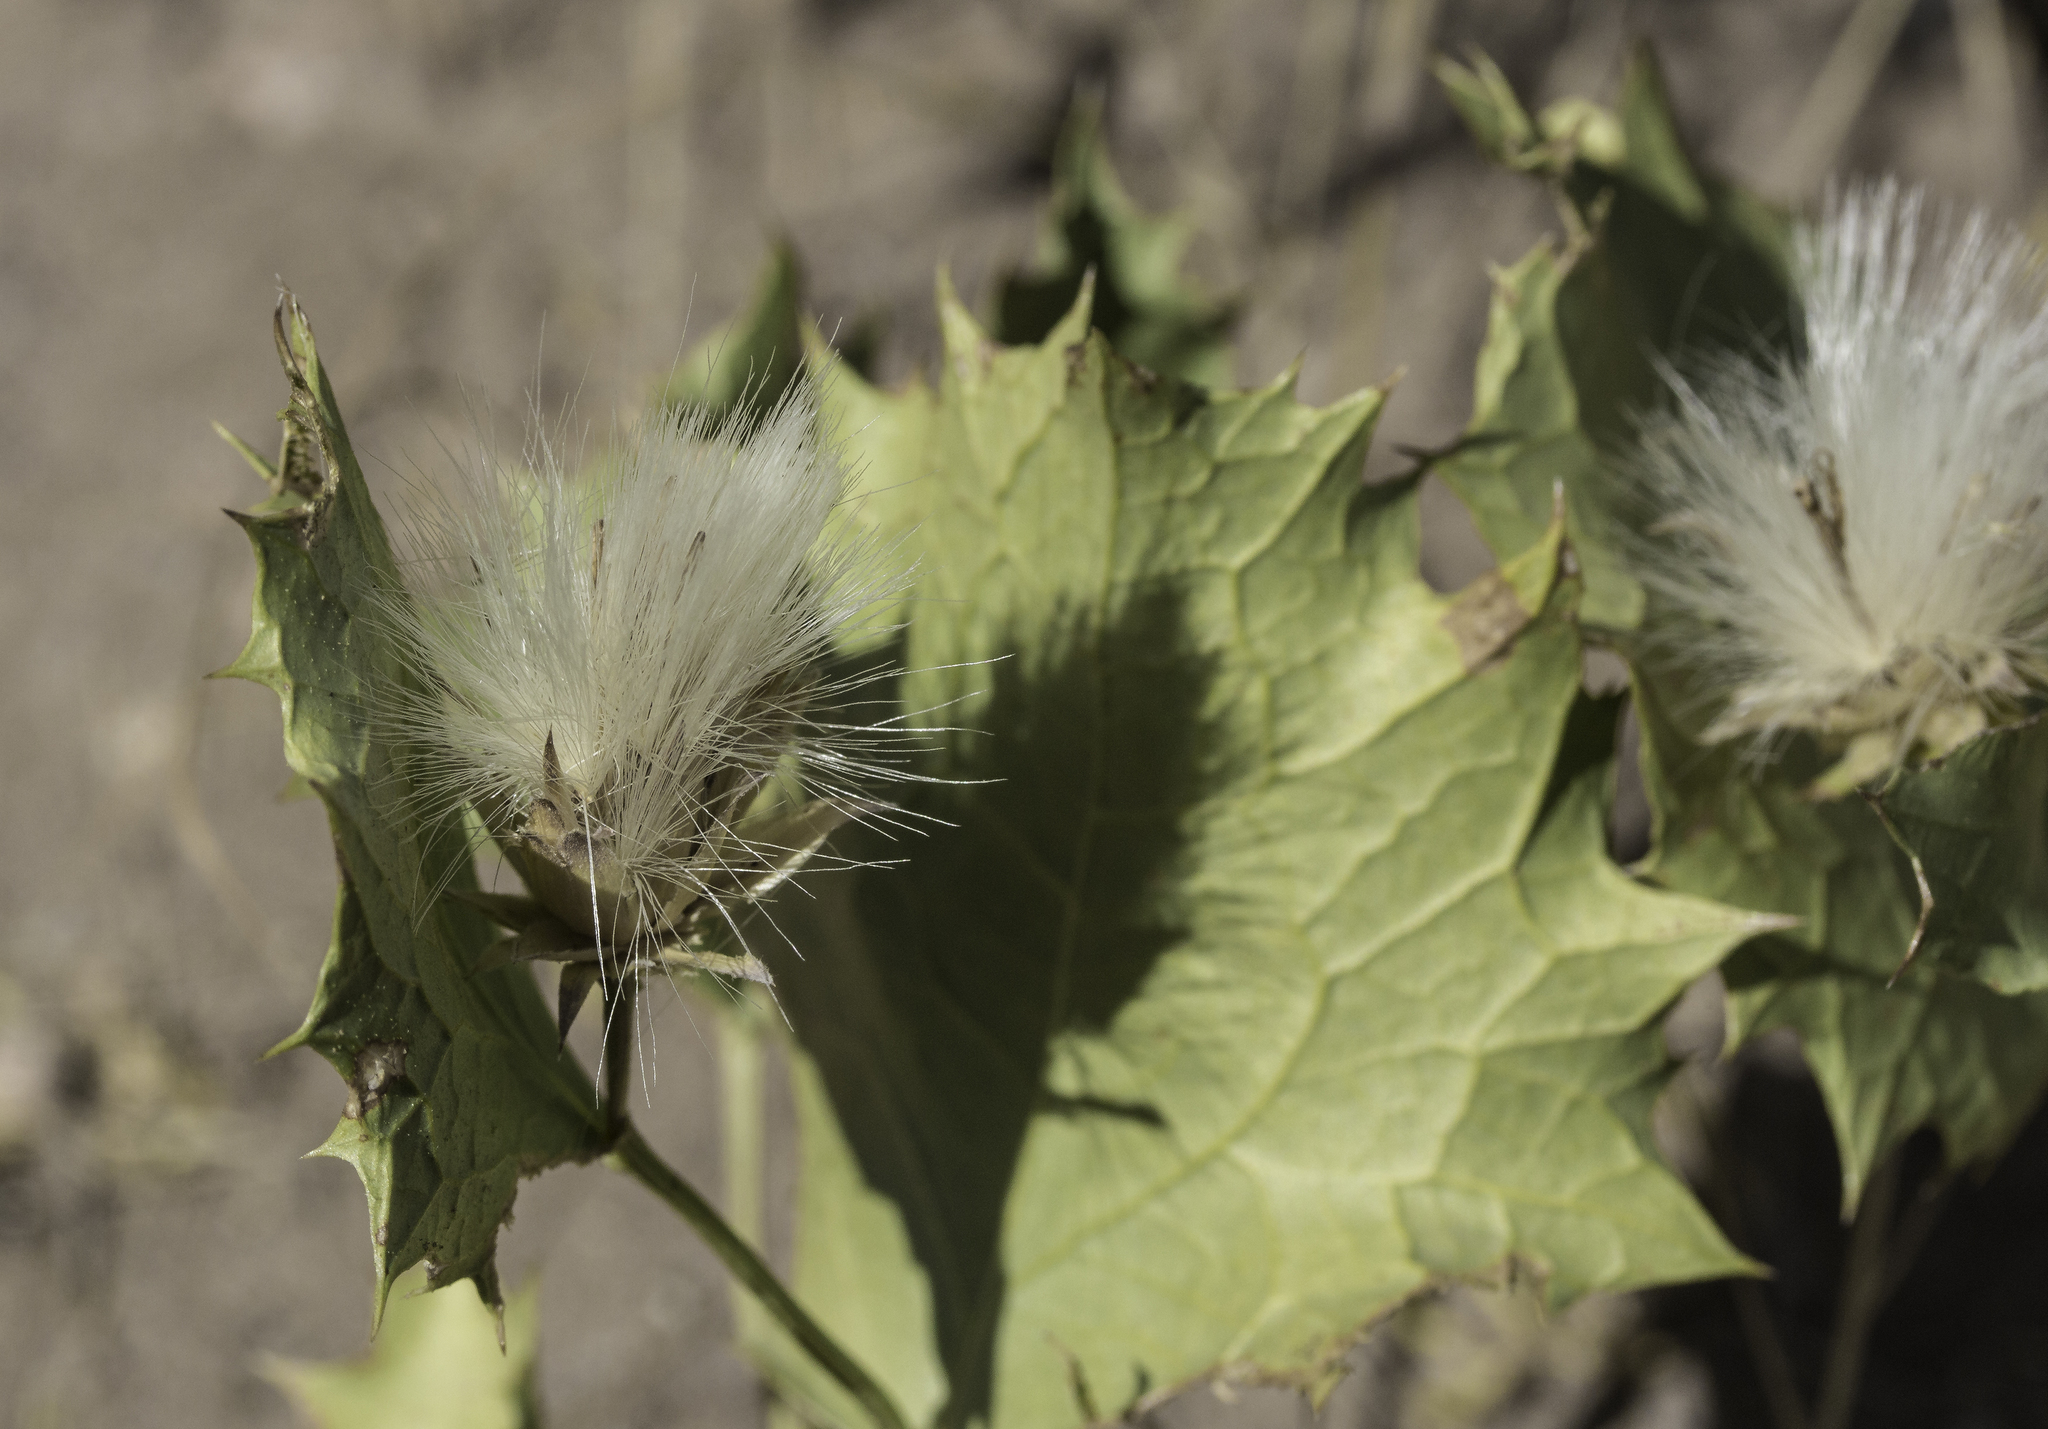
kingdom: Plantae
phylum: Tracheophyta
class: Magnoliopsida
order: Asterales
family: Asteraceae
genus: Acourtia
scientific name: Acourtia nana
